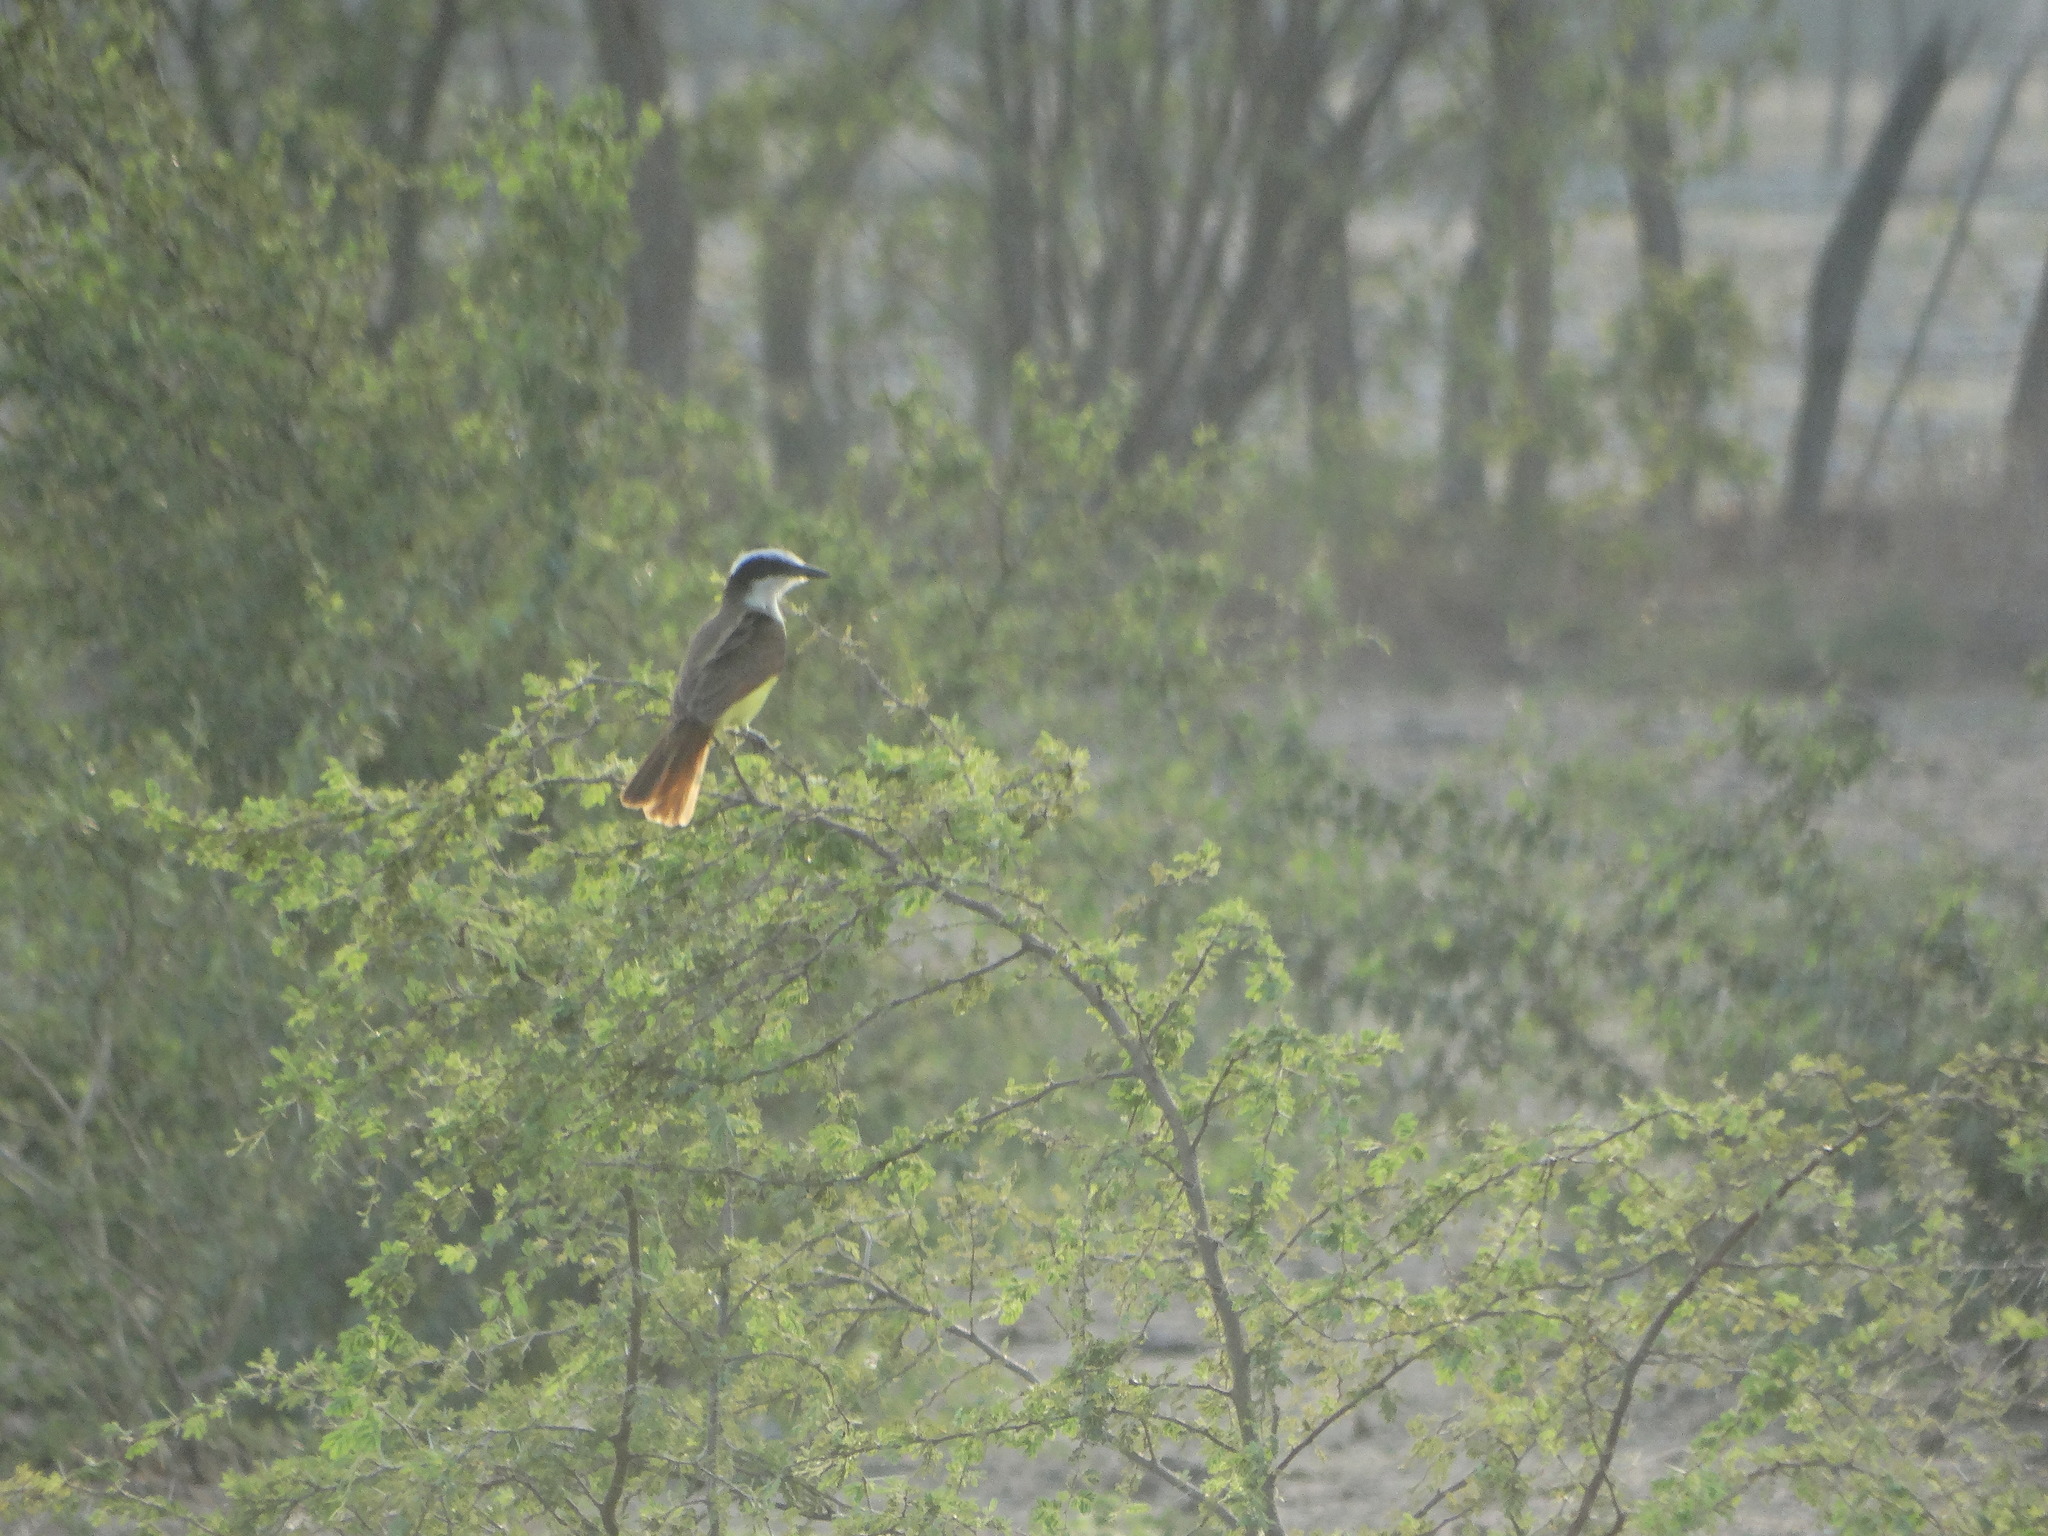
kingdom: Animalia
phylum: Chordata
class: Aves
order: Passeriformes
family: Tyrannidae
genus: Pitangus
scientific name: Pitangus sulphuratus
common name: Great kiskadee
